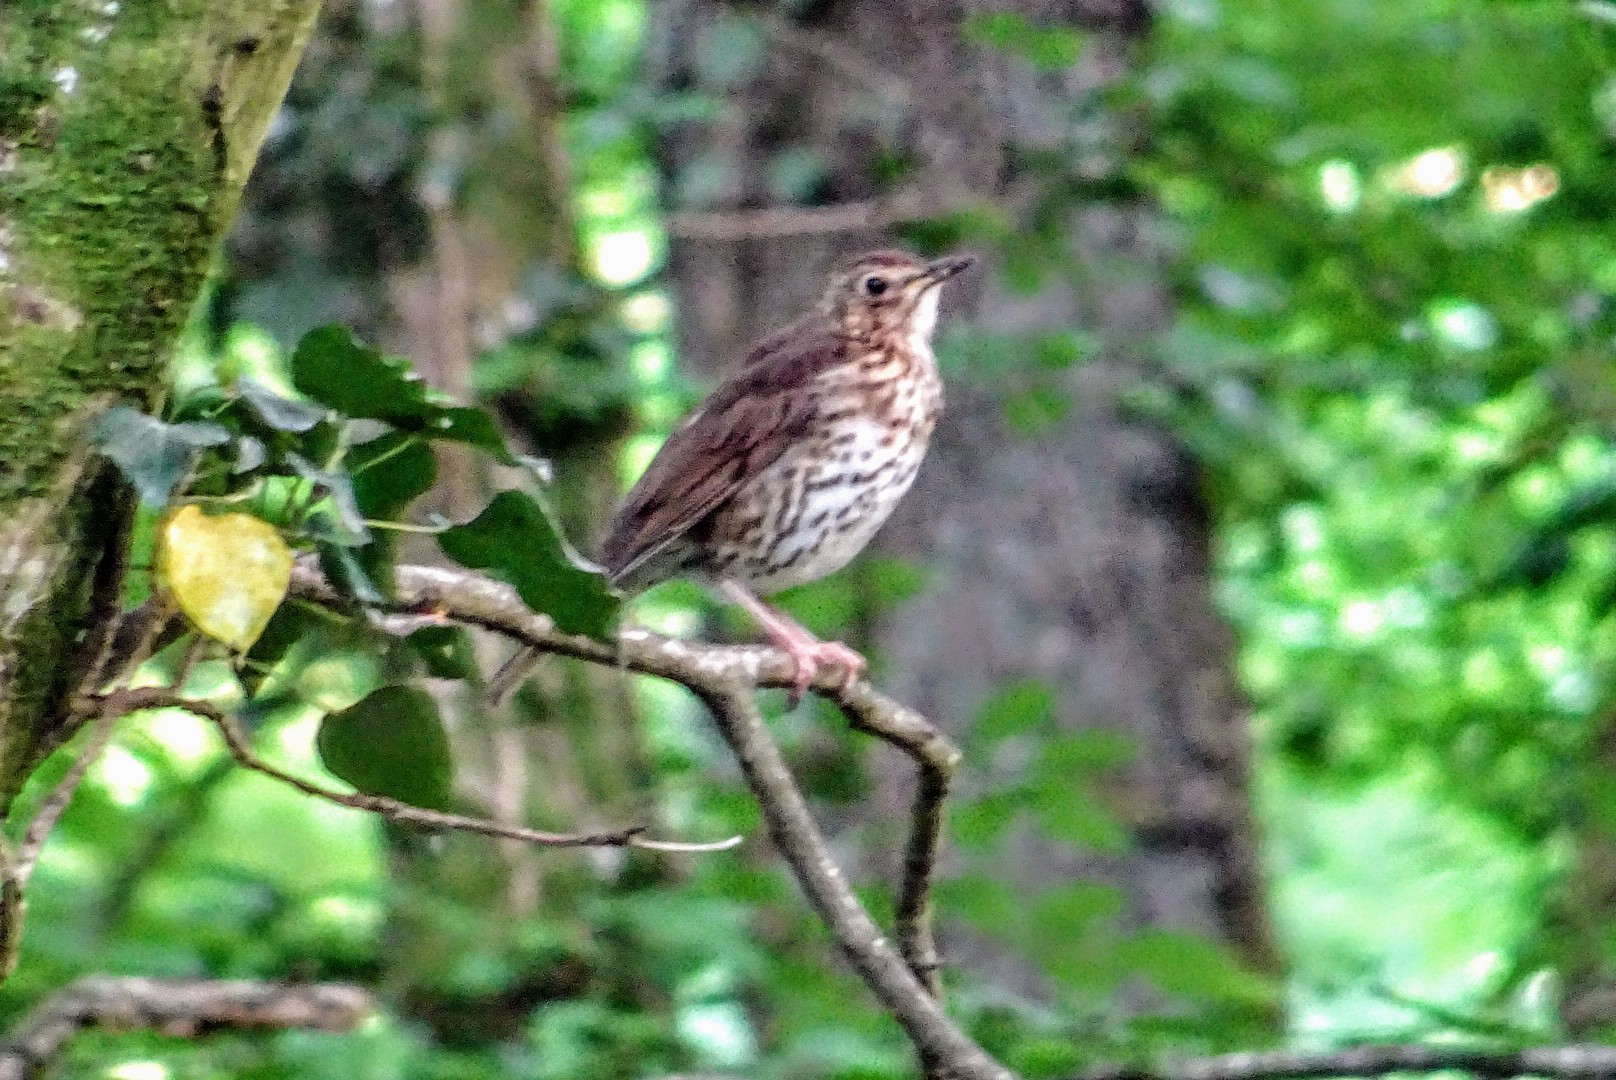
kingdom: Animalia
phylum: Chordata
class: Aves
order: Passeriformes
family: Turdidae
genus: Turdus
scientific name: Turdus philomelos
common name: Song thrush
